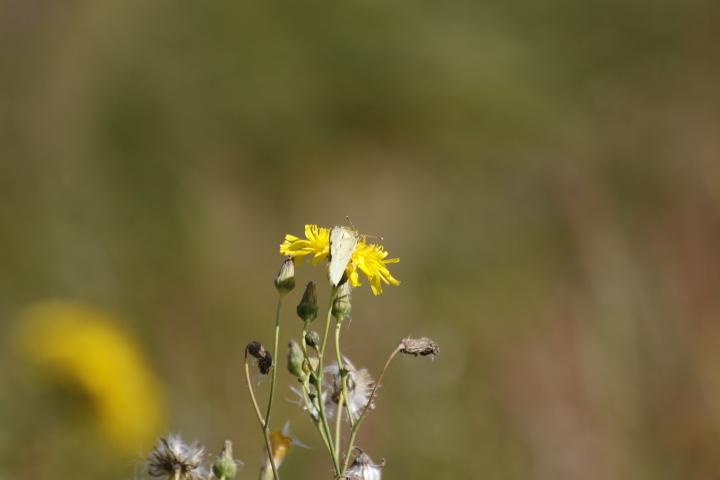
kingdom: Animalia
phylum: Arthropoda
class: Insecta
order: Lepidoptera
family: Pieridae
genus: Colias
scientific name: Colias hyale
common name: Pale clouded yellow
